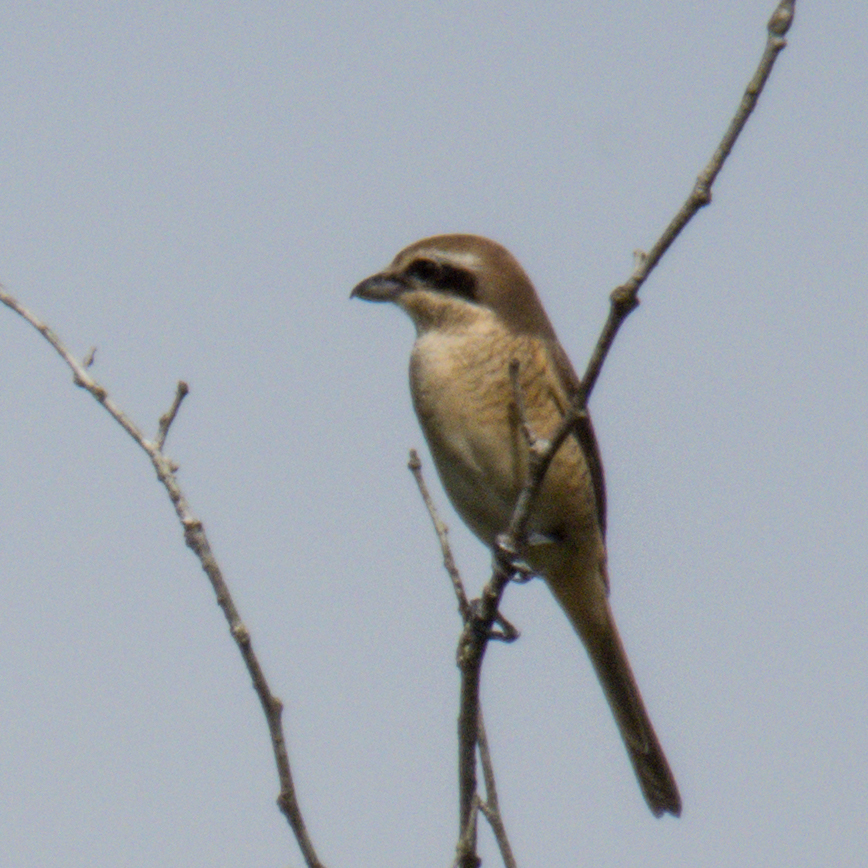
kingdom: Animalia
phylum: Chordata
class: Aves
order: Passeriformes
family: Laniidae
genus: Lanius
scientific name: Lanius cristatus
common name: Brown shrike
